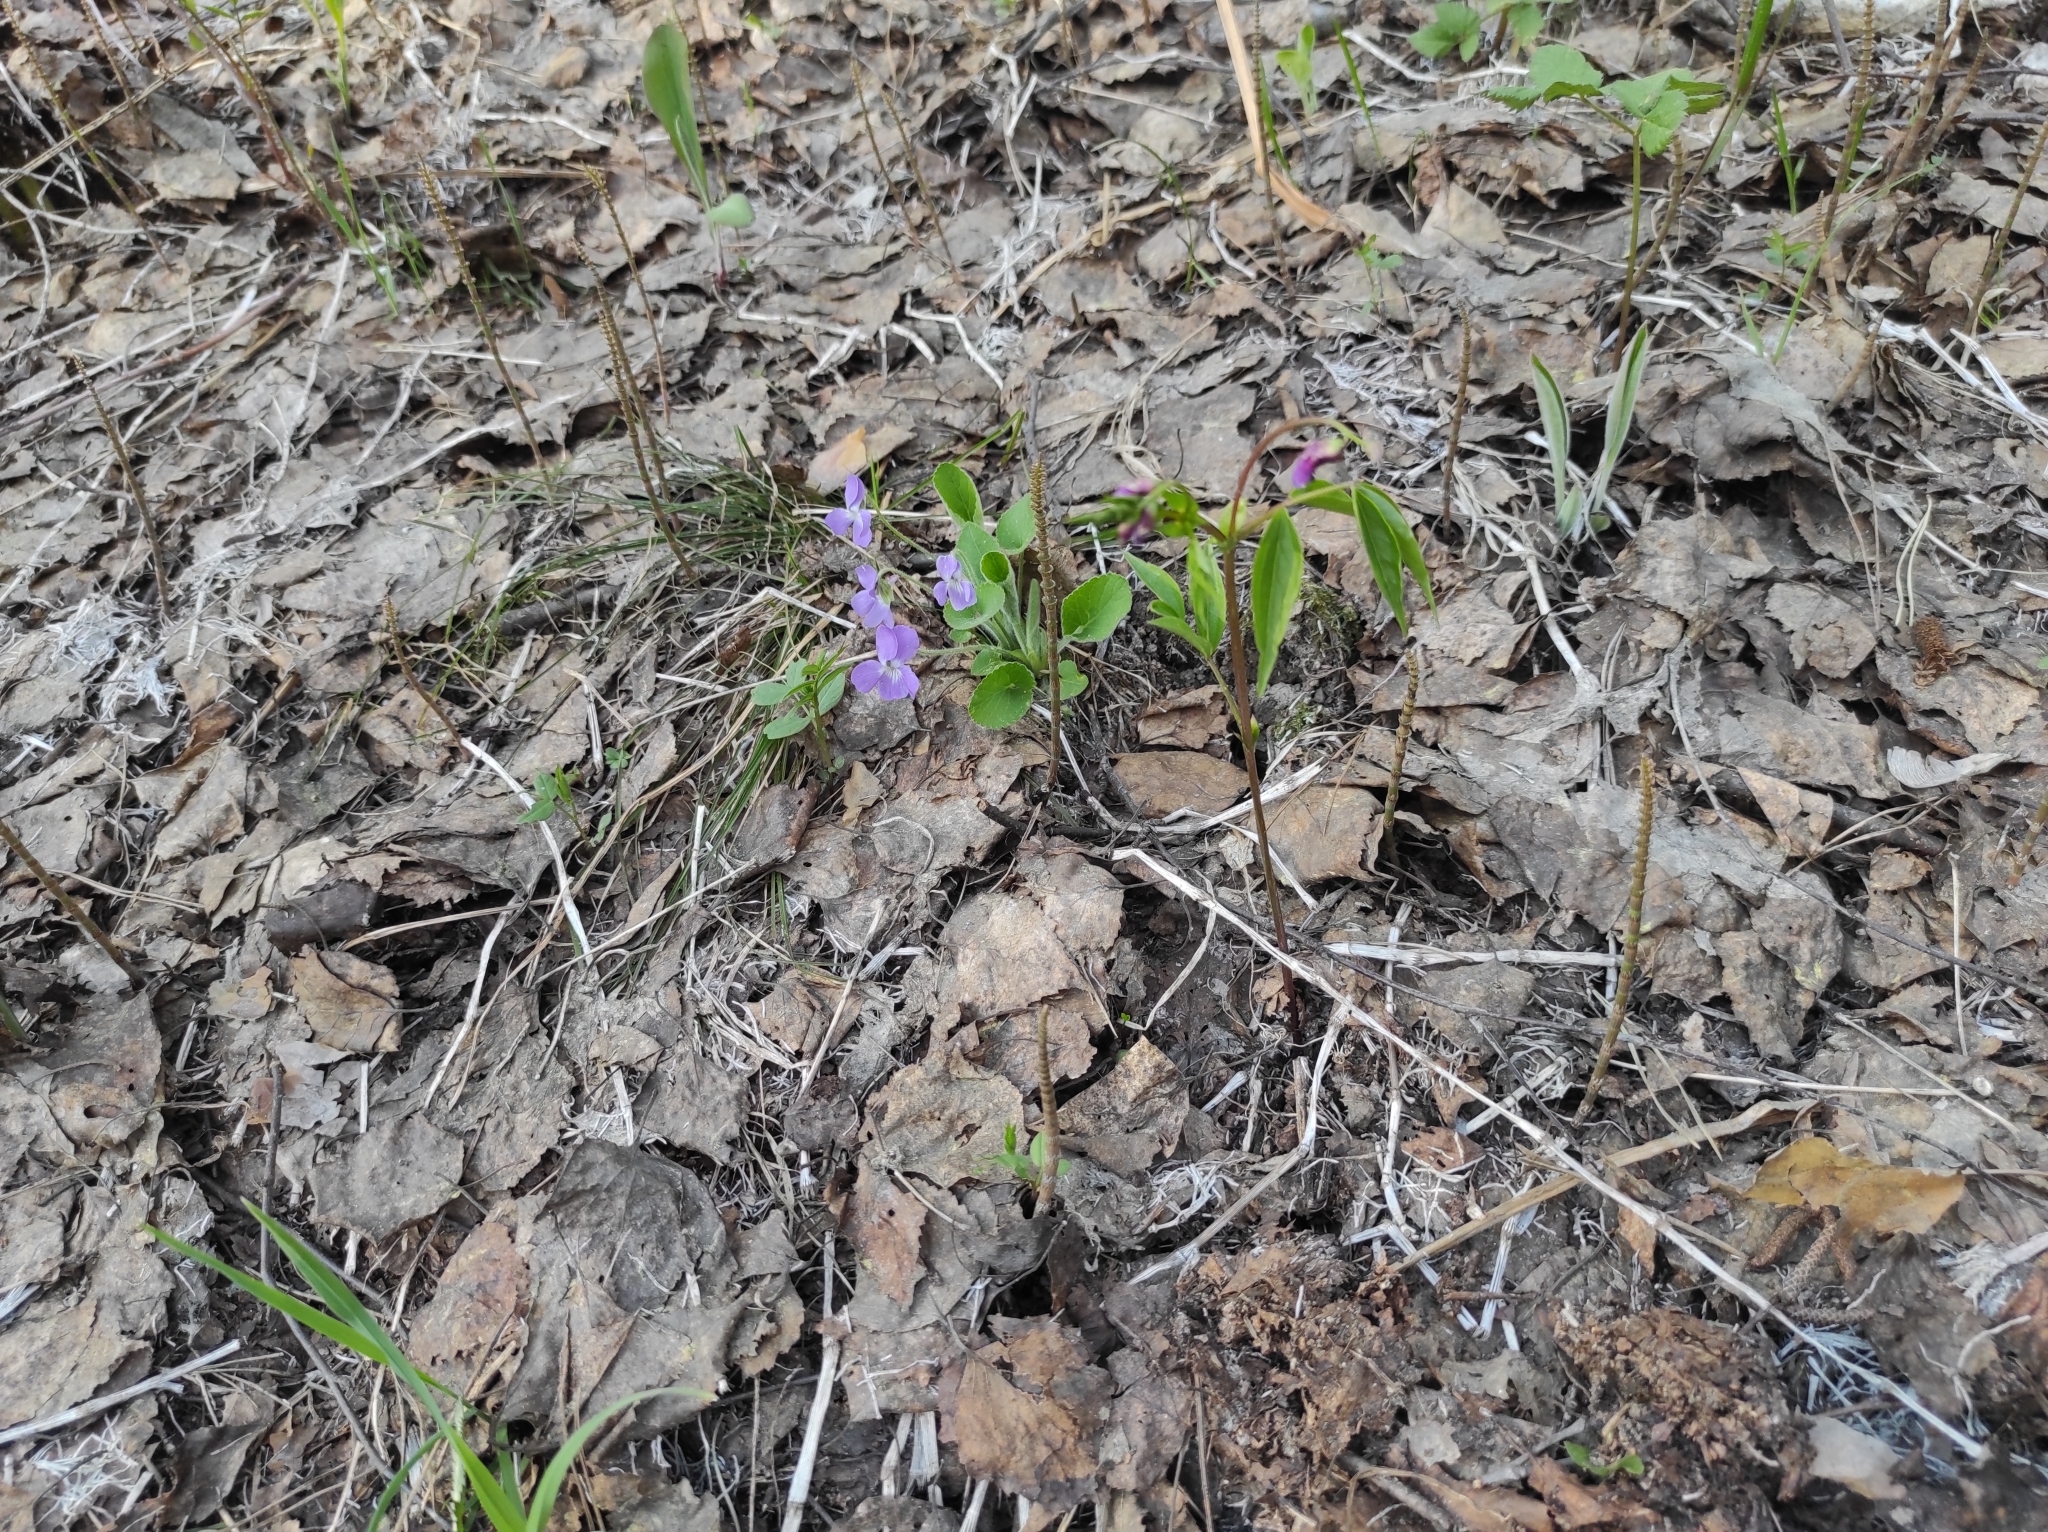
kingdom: Plantae
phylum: Tracheophyta
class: Magnoliopsida
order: Malpighiales
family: Violaceae
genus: Viola
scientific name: Viola hirta
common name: Hairy violet
